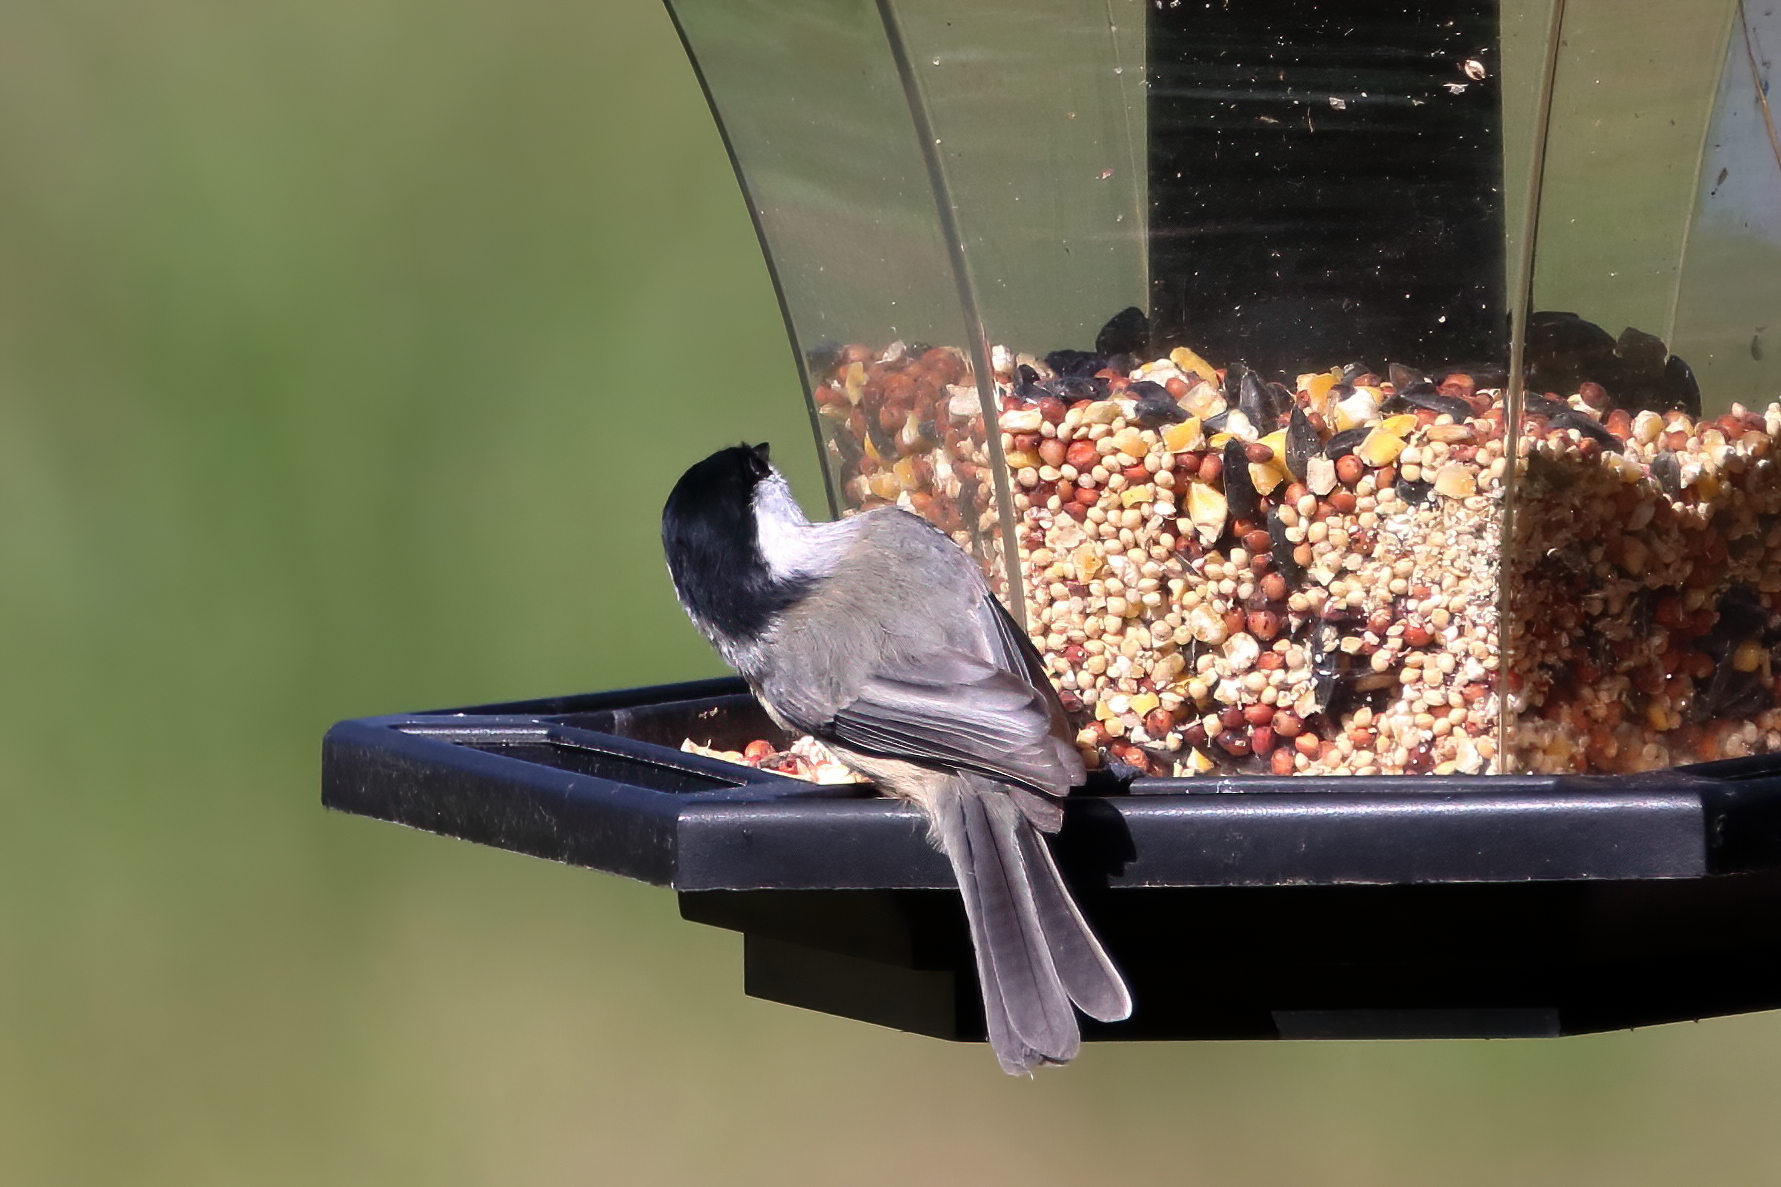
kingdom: Animalia
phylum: Chordata
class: Aves
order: Passeriformes
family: Paridae
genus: Poecile
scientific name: Poecile carolinensis
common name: Carolina chickadee
